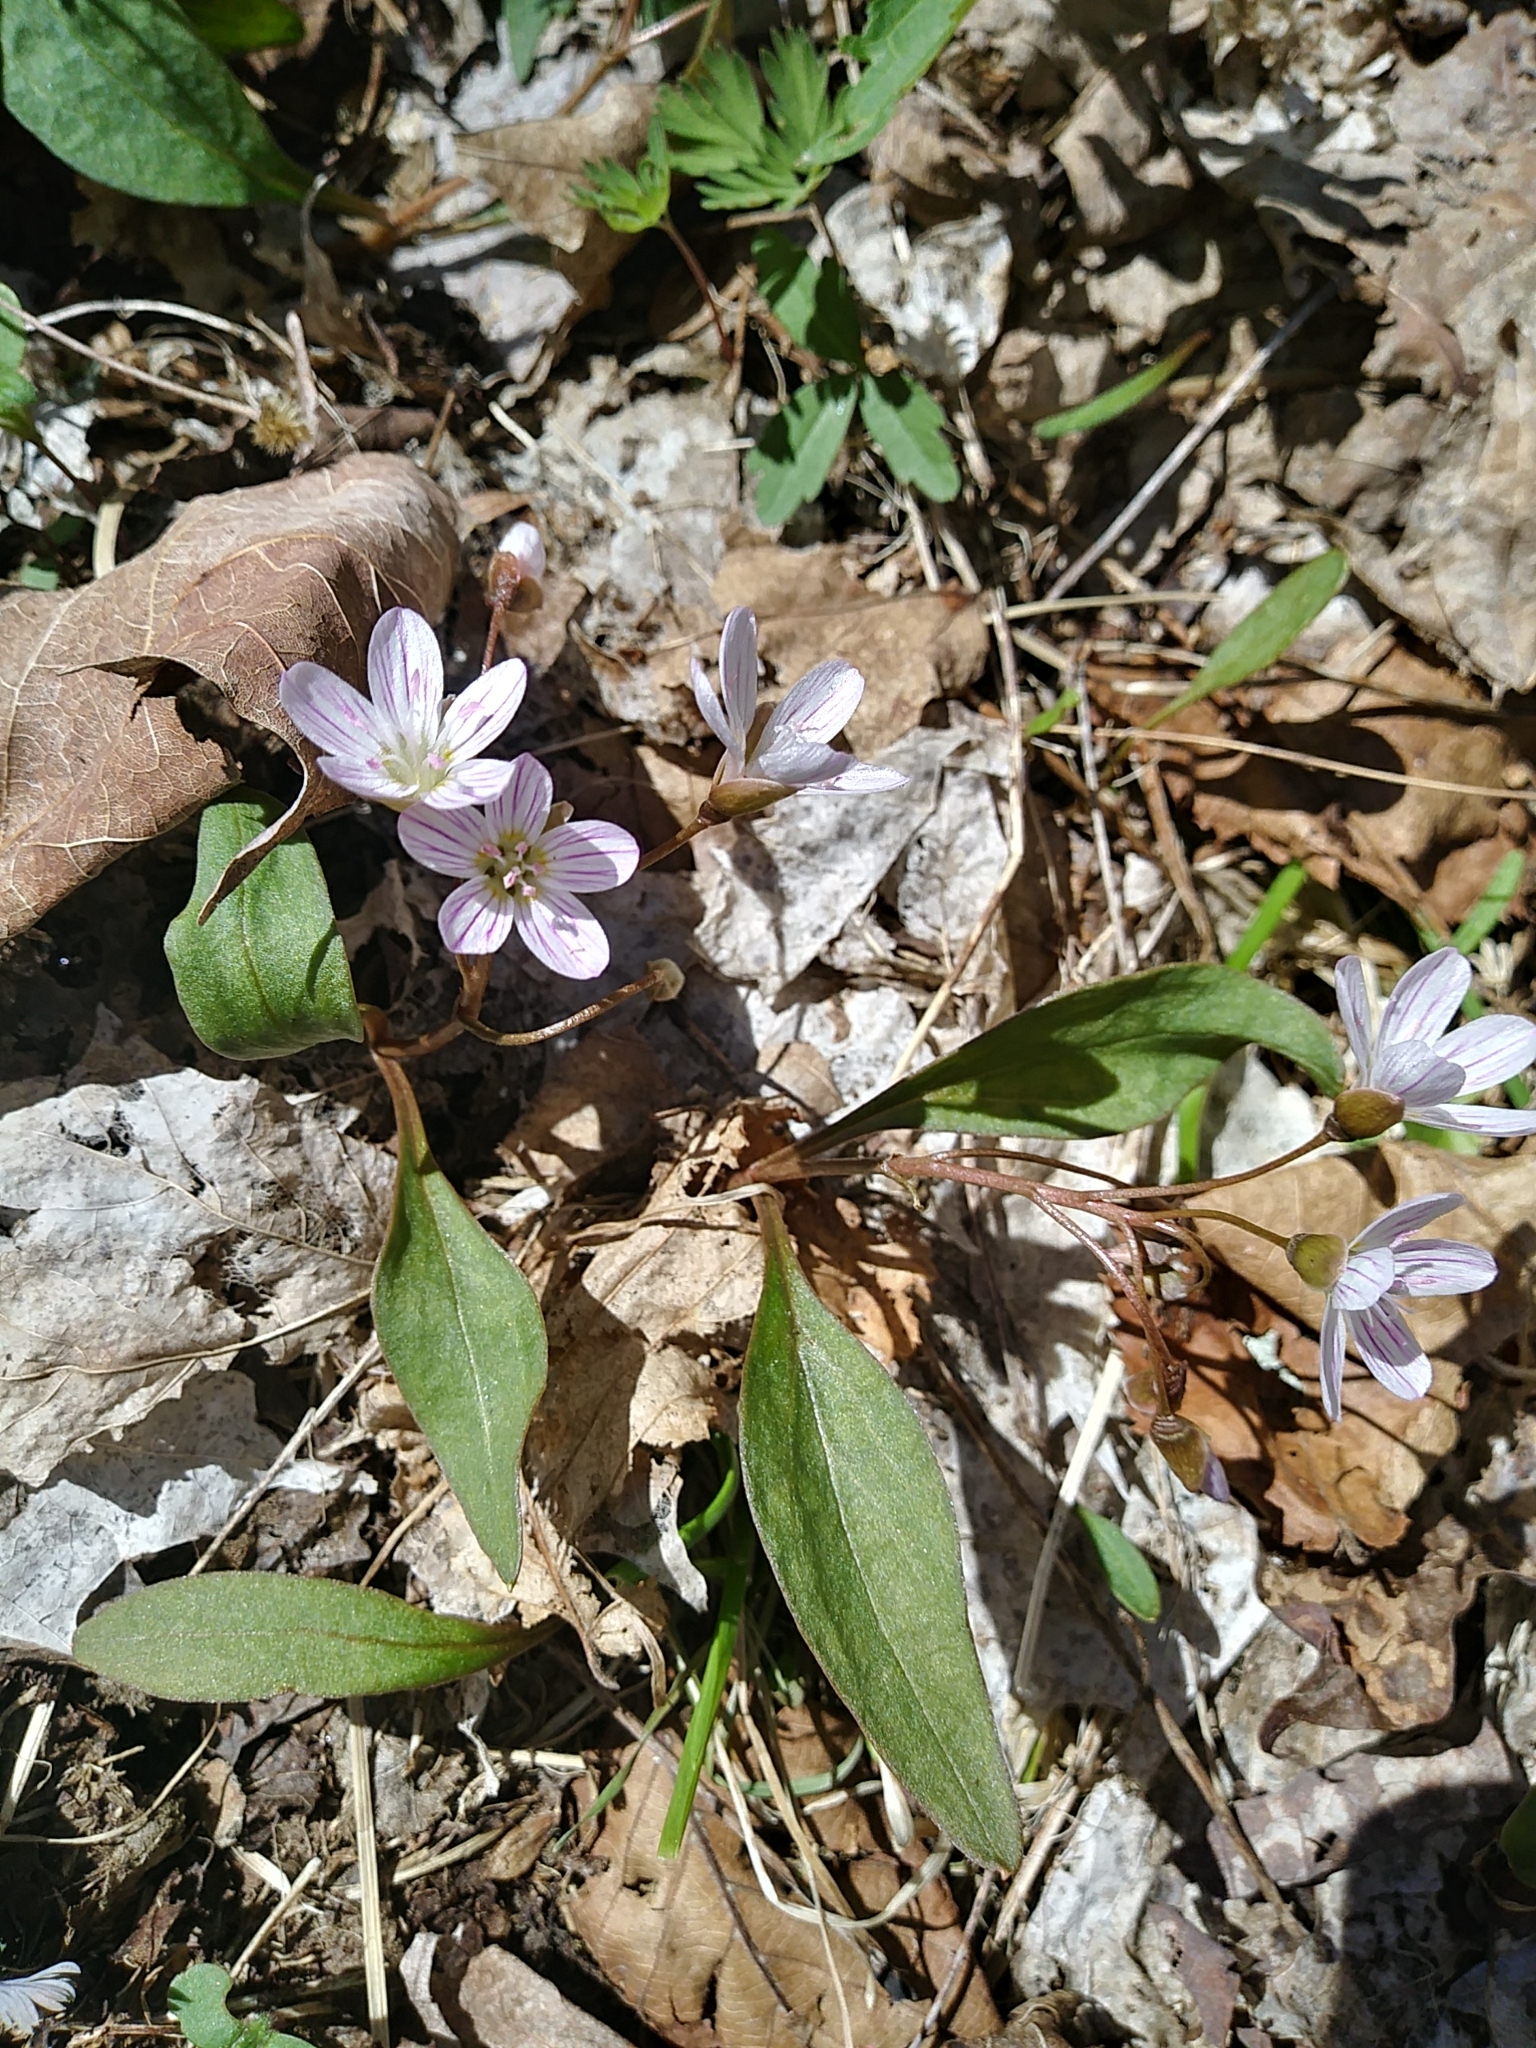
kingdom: Plantae
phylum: Tracheophyta
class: Magnoliopsida
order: Caryophyllales
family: Montiaceae
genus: Claytonia
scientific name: Claytonia caroliniana
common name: Carolina spring beauty
